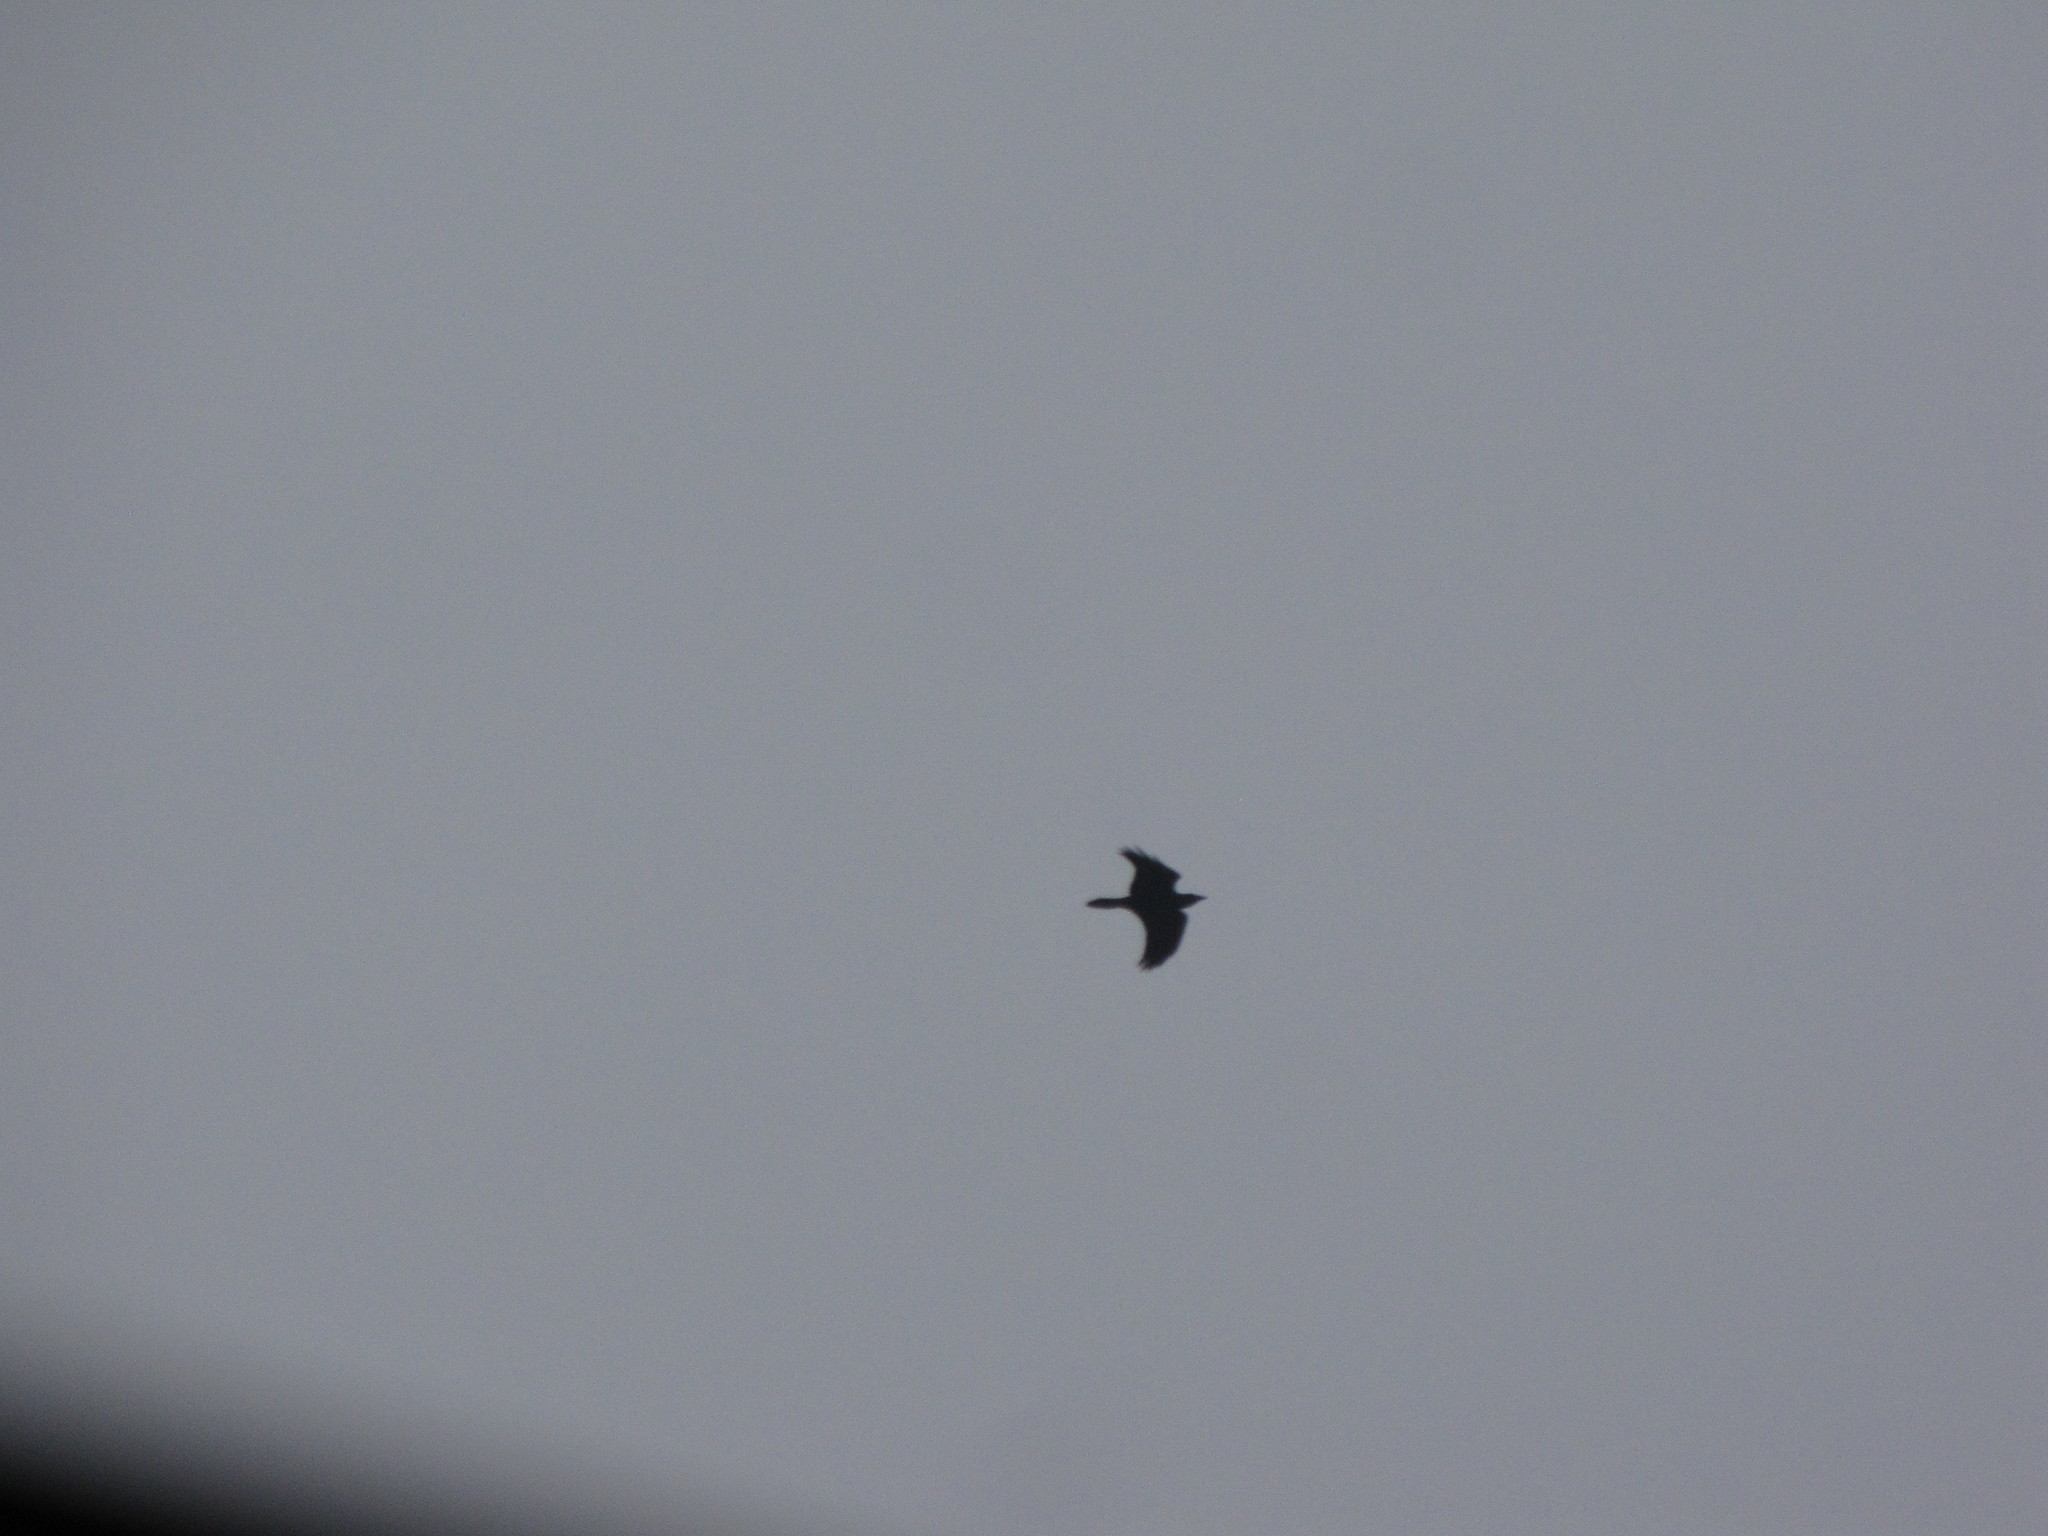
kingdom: Animalia
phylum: Chordata
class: Aves
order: Passeriformes
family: Corvidae
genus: Corvus
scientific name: Corvus brachyrhynchos
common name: American crow
